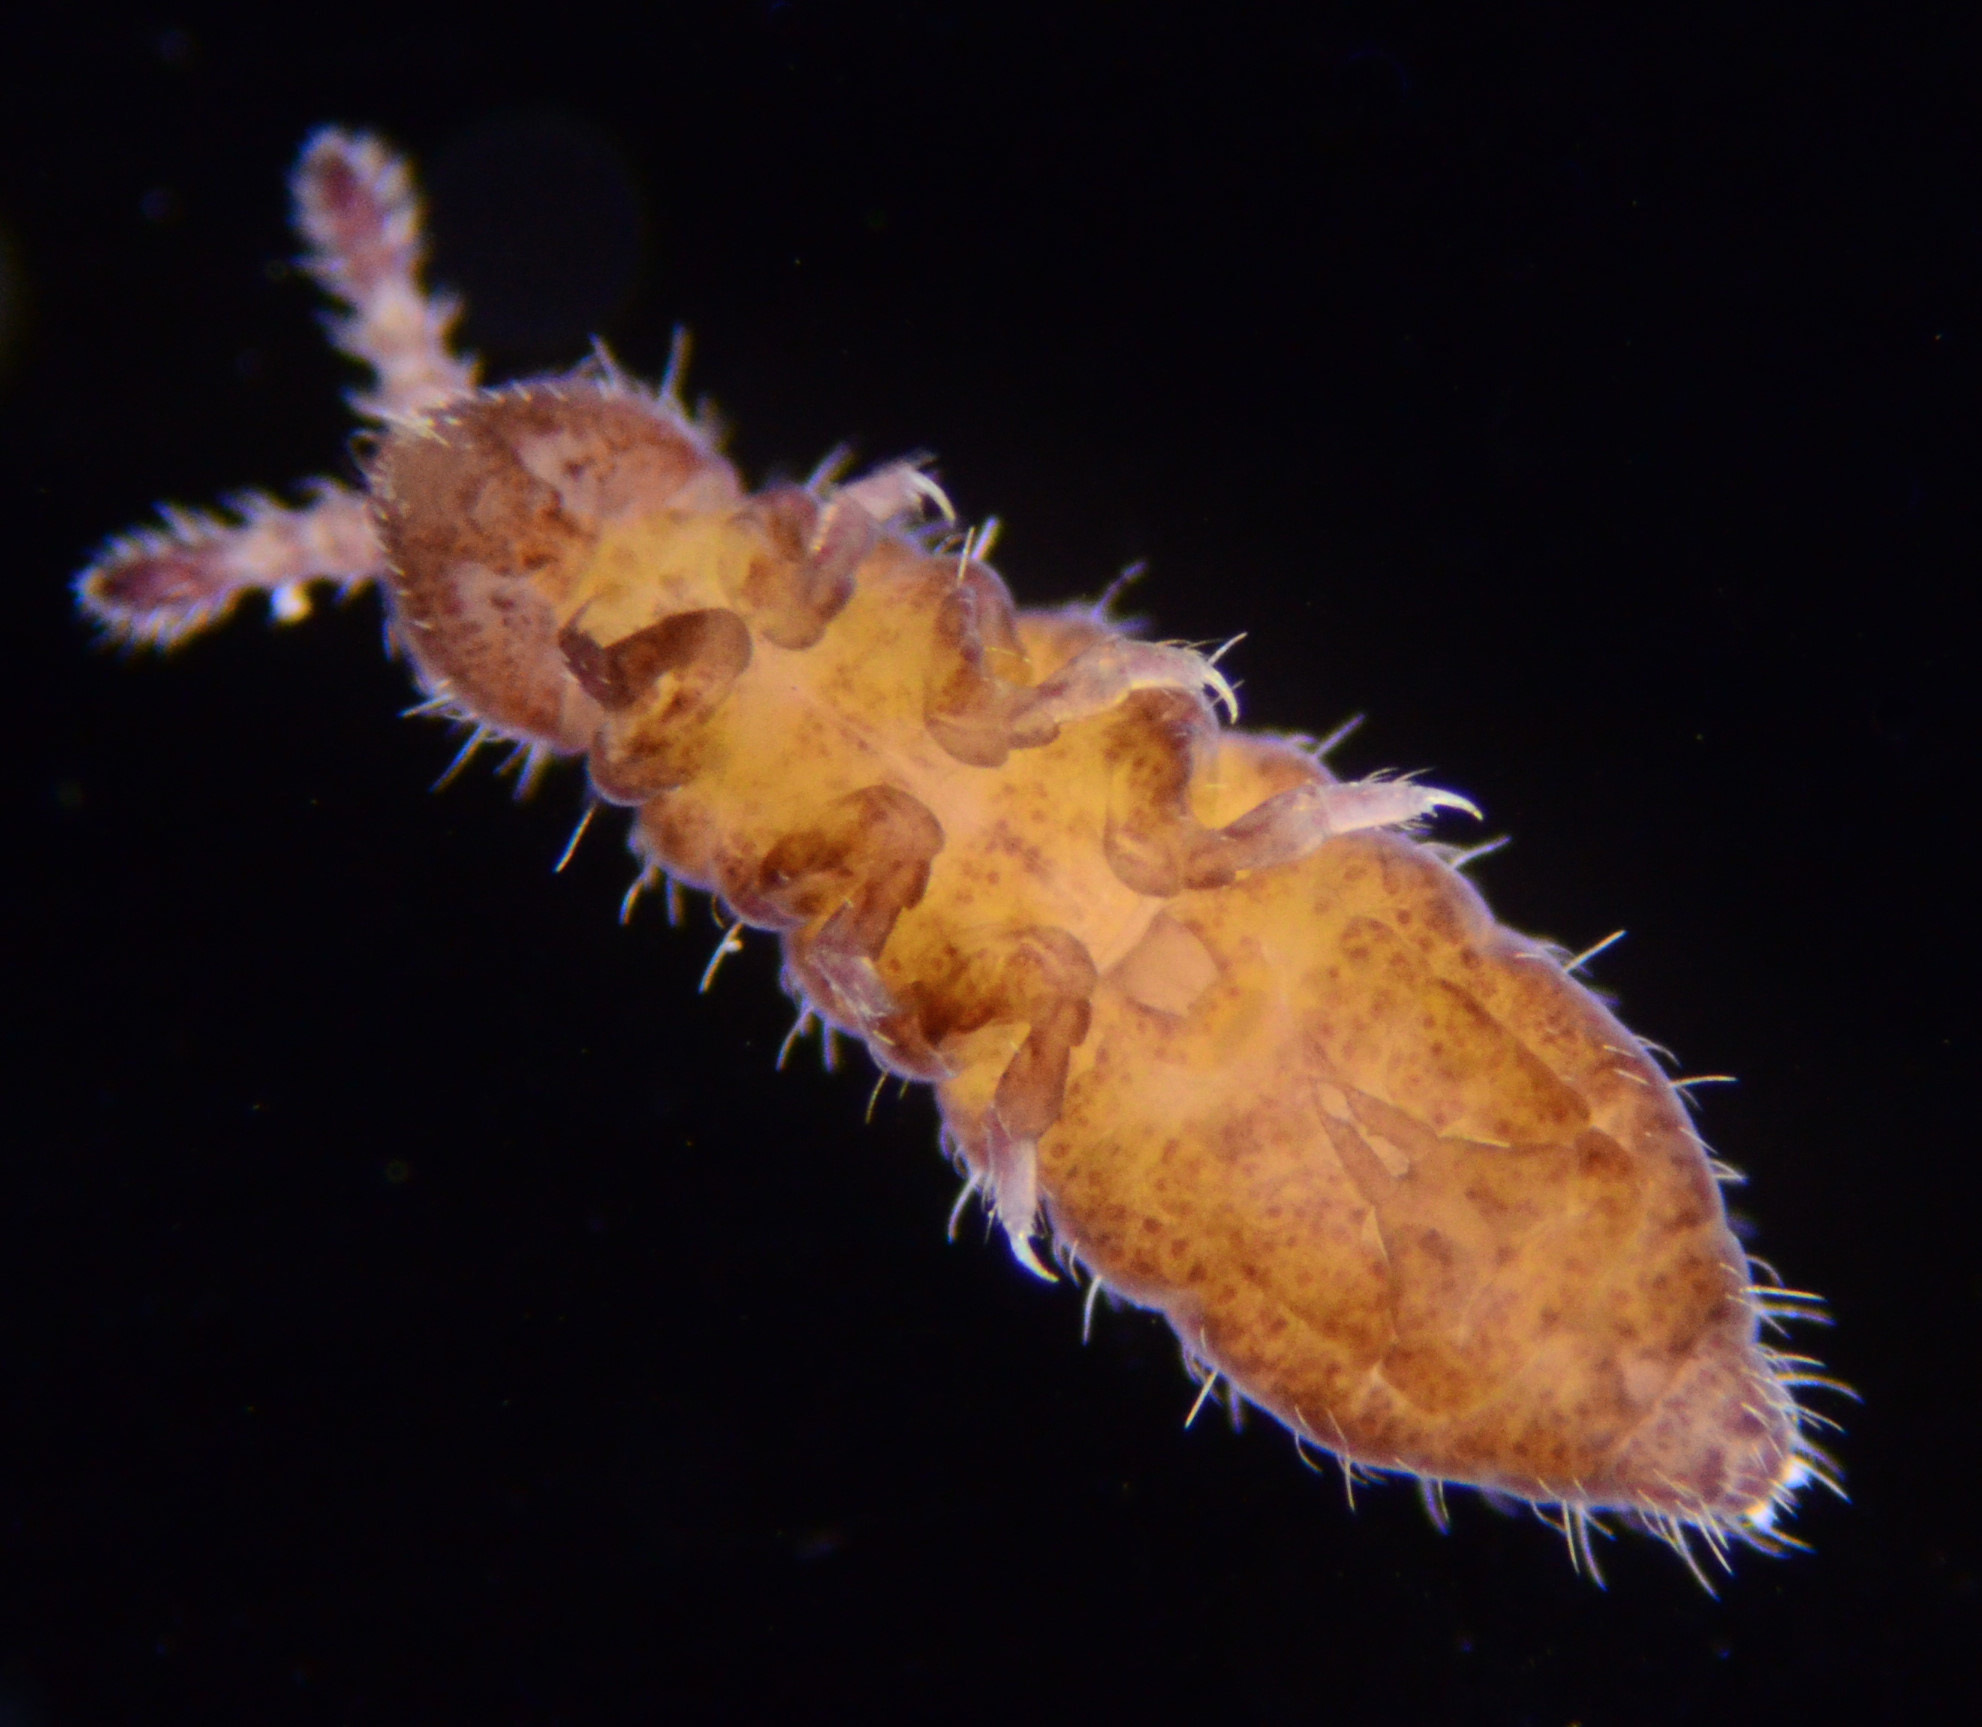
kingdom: Animalia
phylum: Arthropoda
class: Collembola
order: Poduromorpha
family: Hypogastruridae
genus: Hypogastrura
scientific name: Hypogastrura manubrialis
